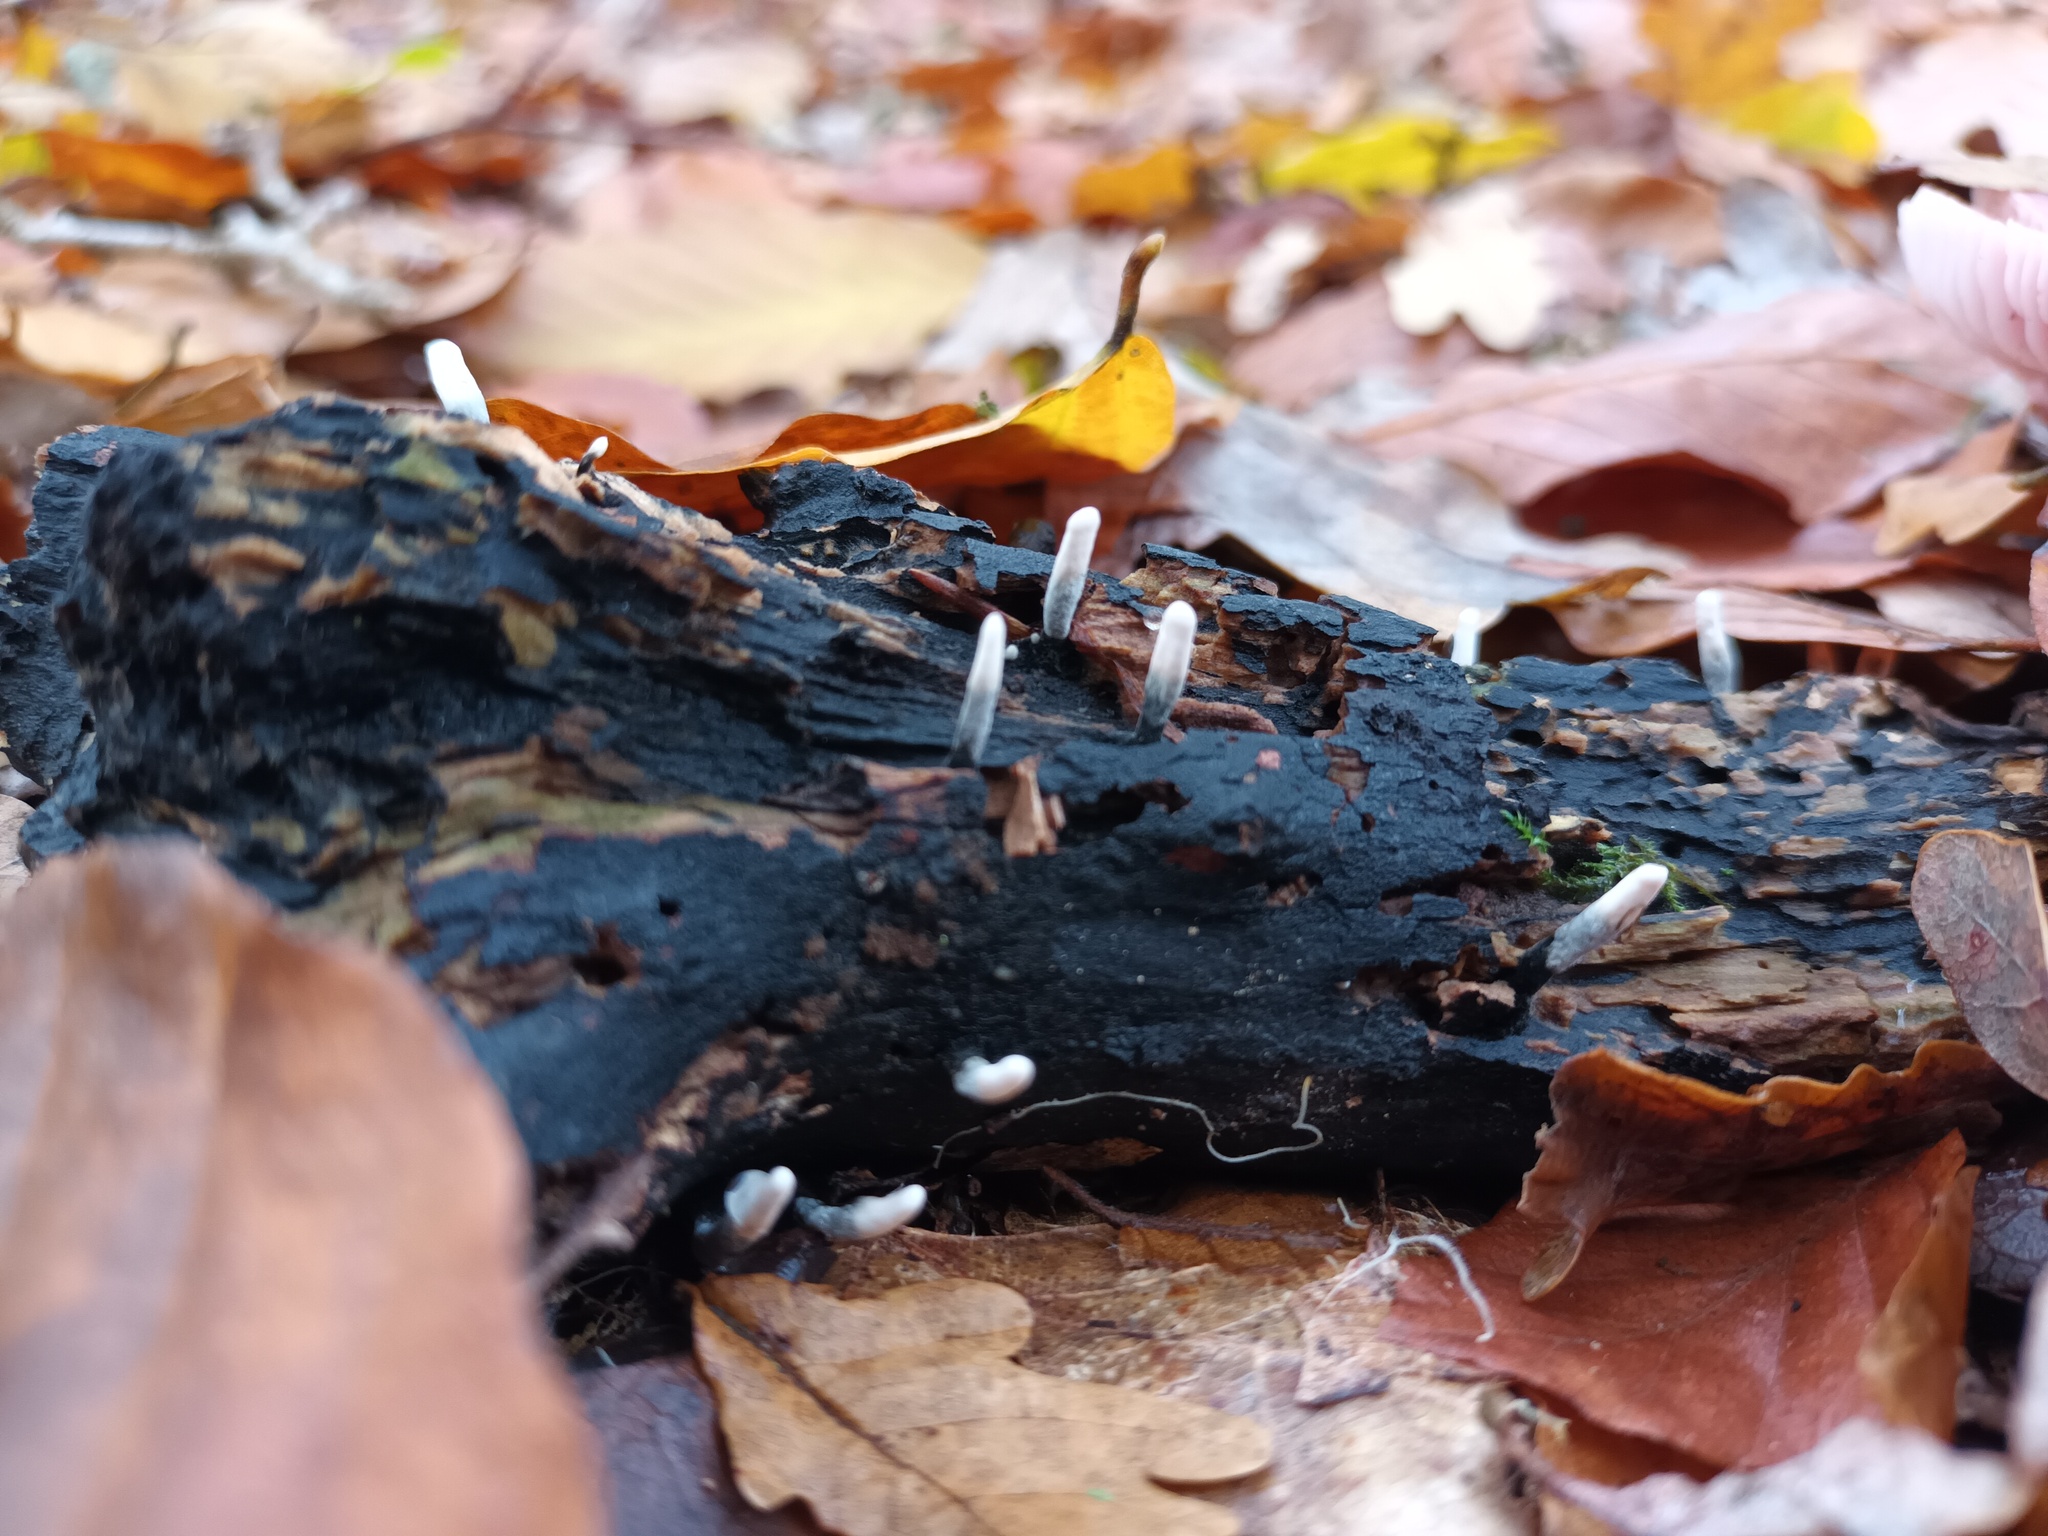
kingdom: Fungi
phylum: Ascomycota
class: Sordariomycetes
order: Xylariales
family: Xylariaceae
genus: Xylaria
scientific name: Xylaria hypoxylon
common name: Candle-snuff fungus
